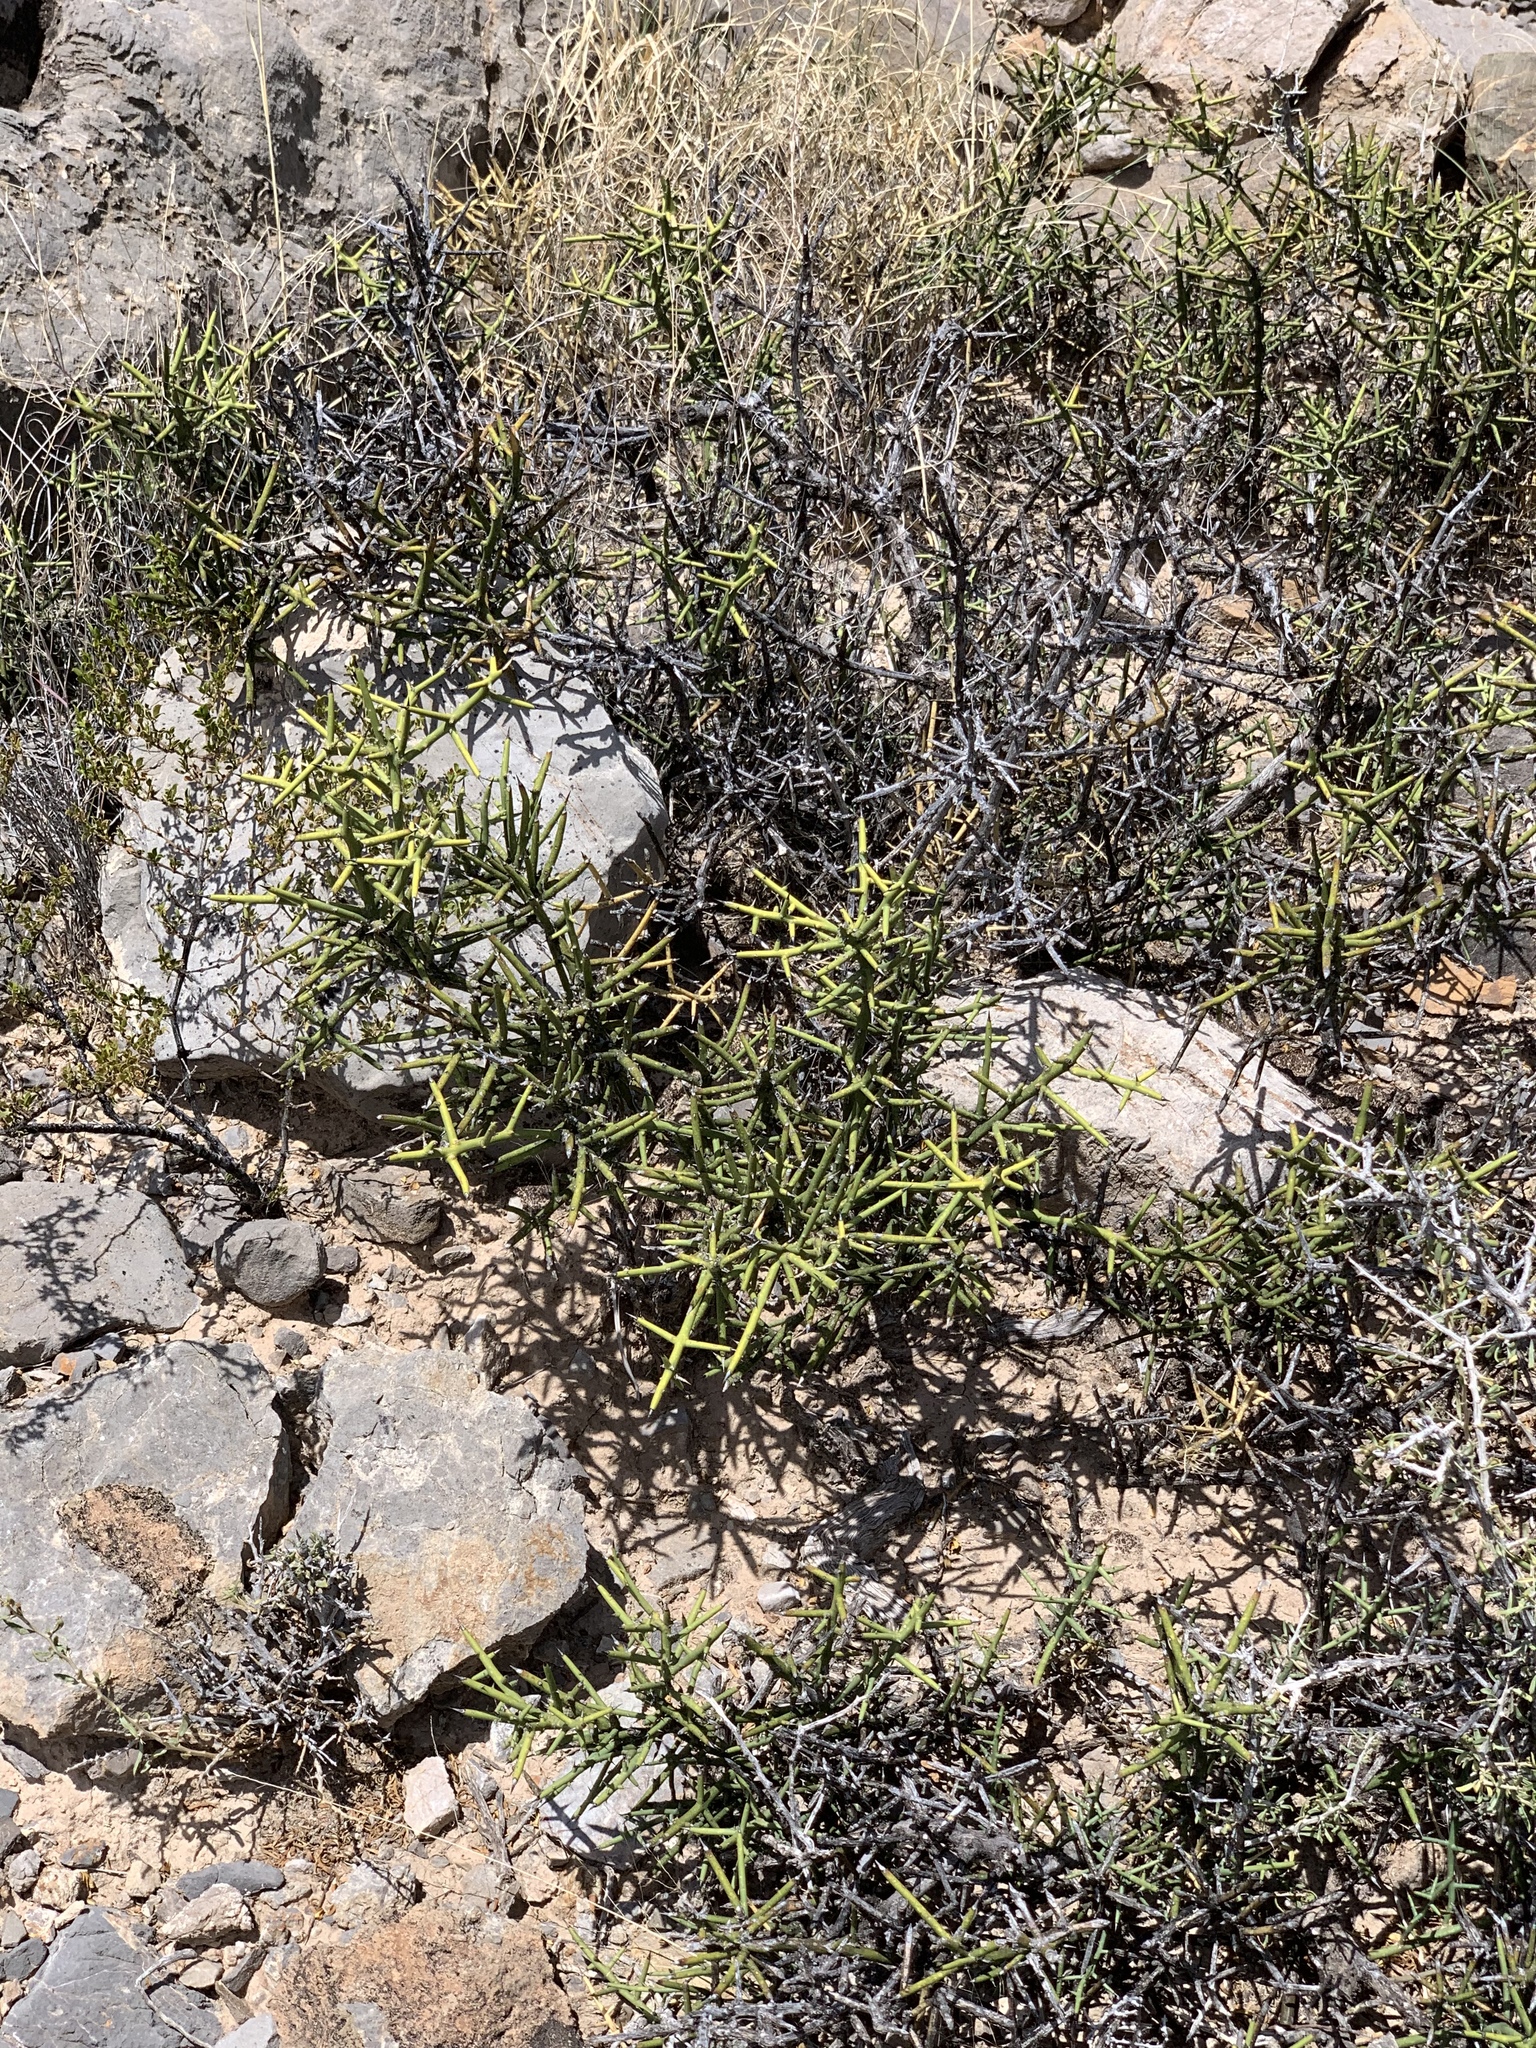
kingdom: Plantae
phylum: Tracheophyta
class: Magnoliopsida
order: Brassicales
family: Koeberliniaceae
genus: Koeberlinia
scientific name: Koeberlinia spinosa
